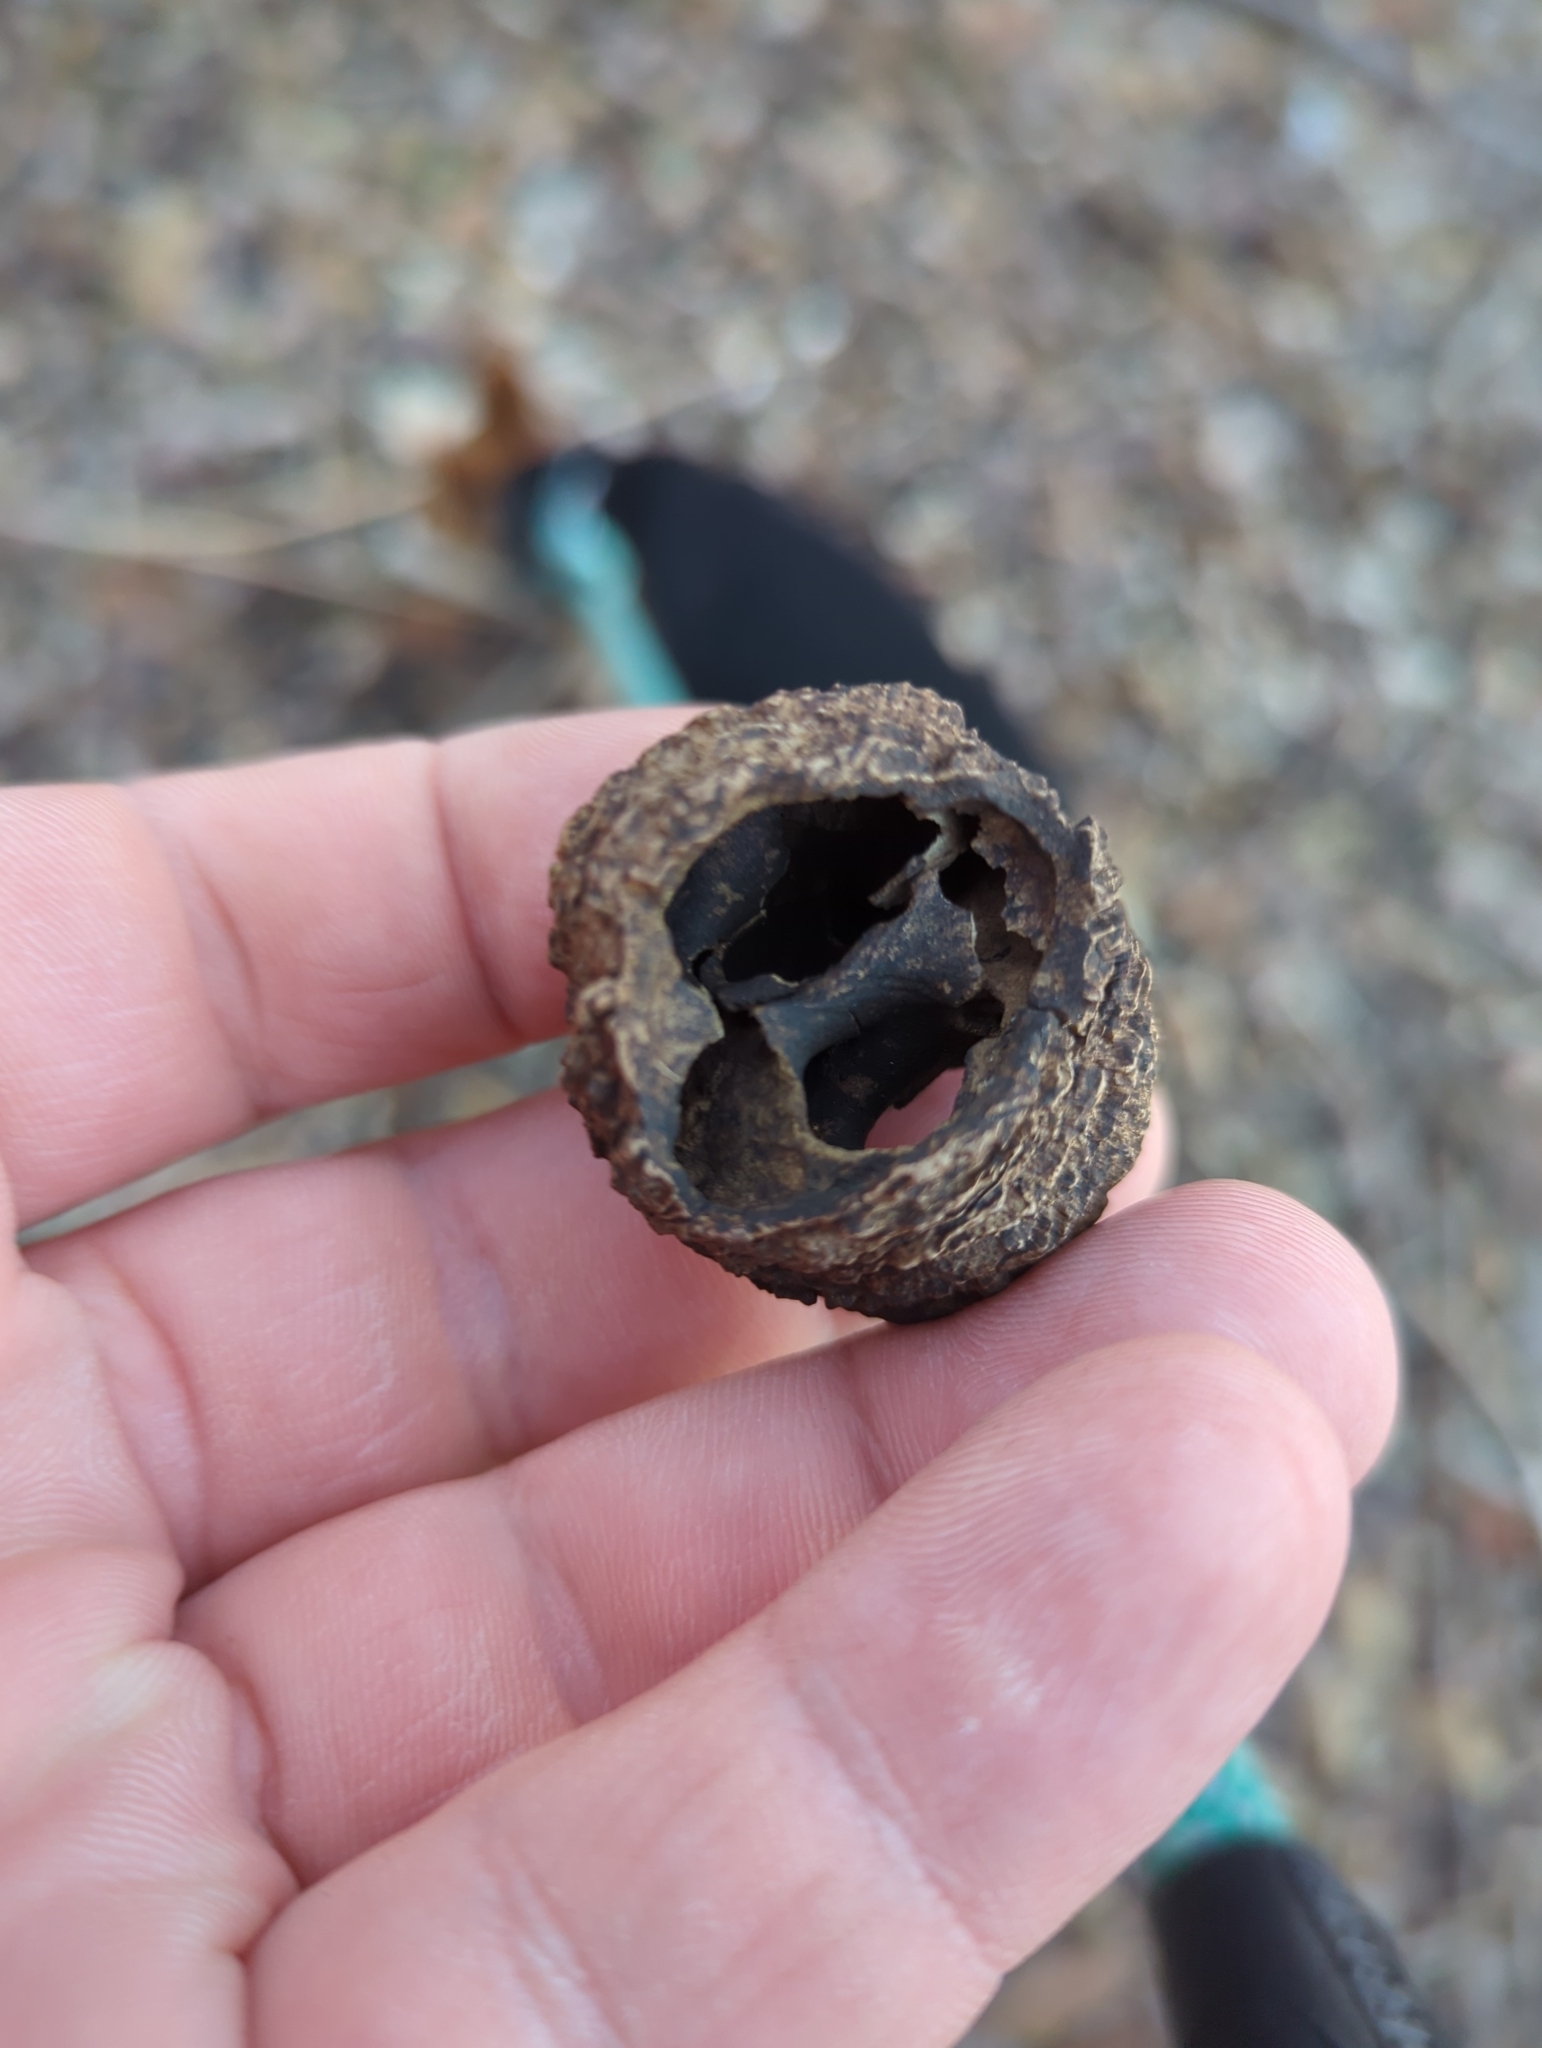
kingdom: Plantae
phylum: Tracheophyta
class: Magnoliopsida
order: Fagales
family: Juglandaceae
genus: Juglans
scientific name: Juglans nigra
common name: Black walnut
